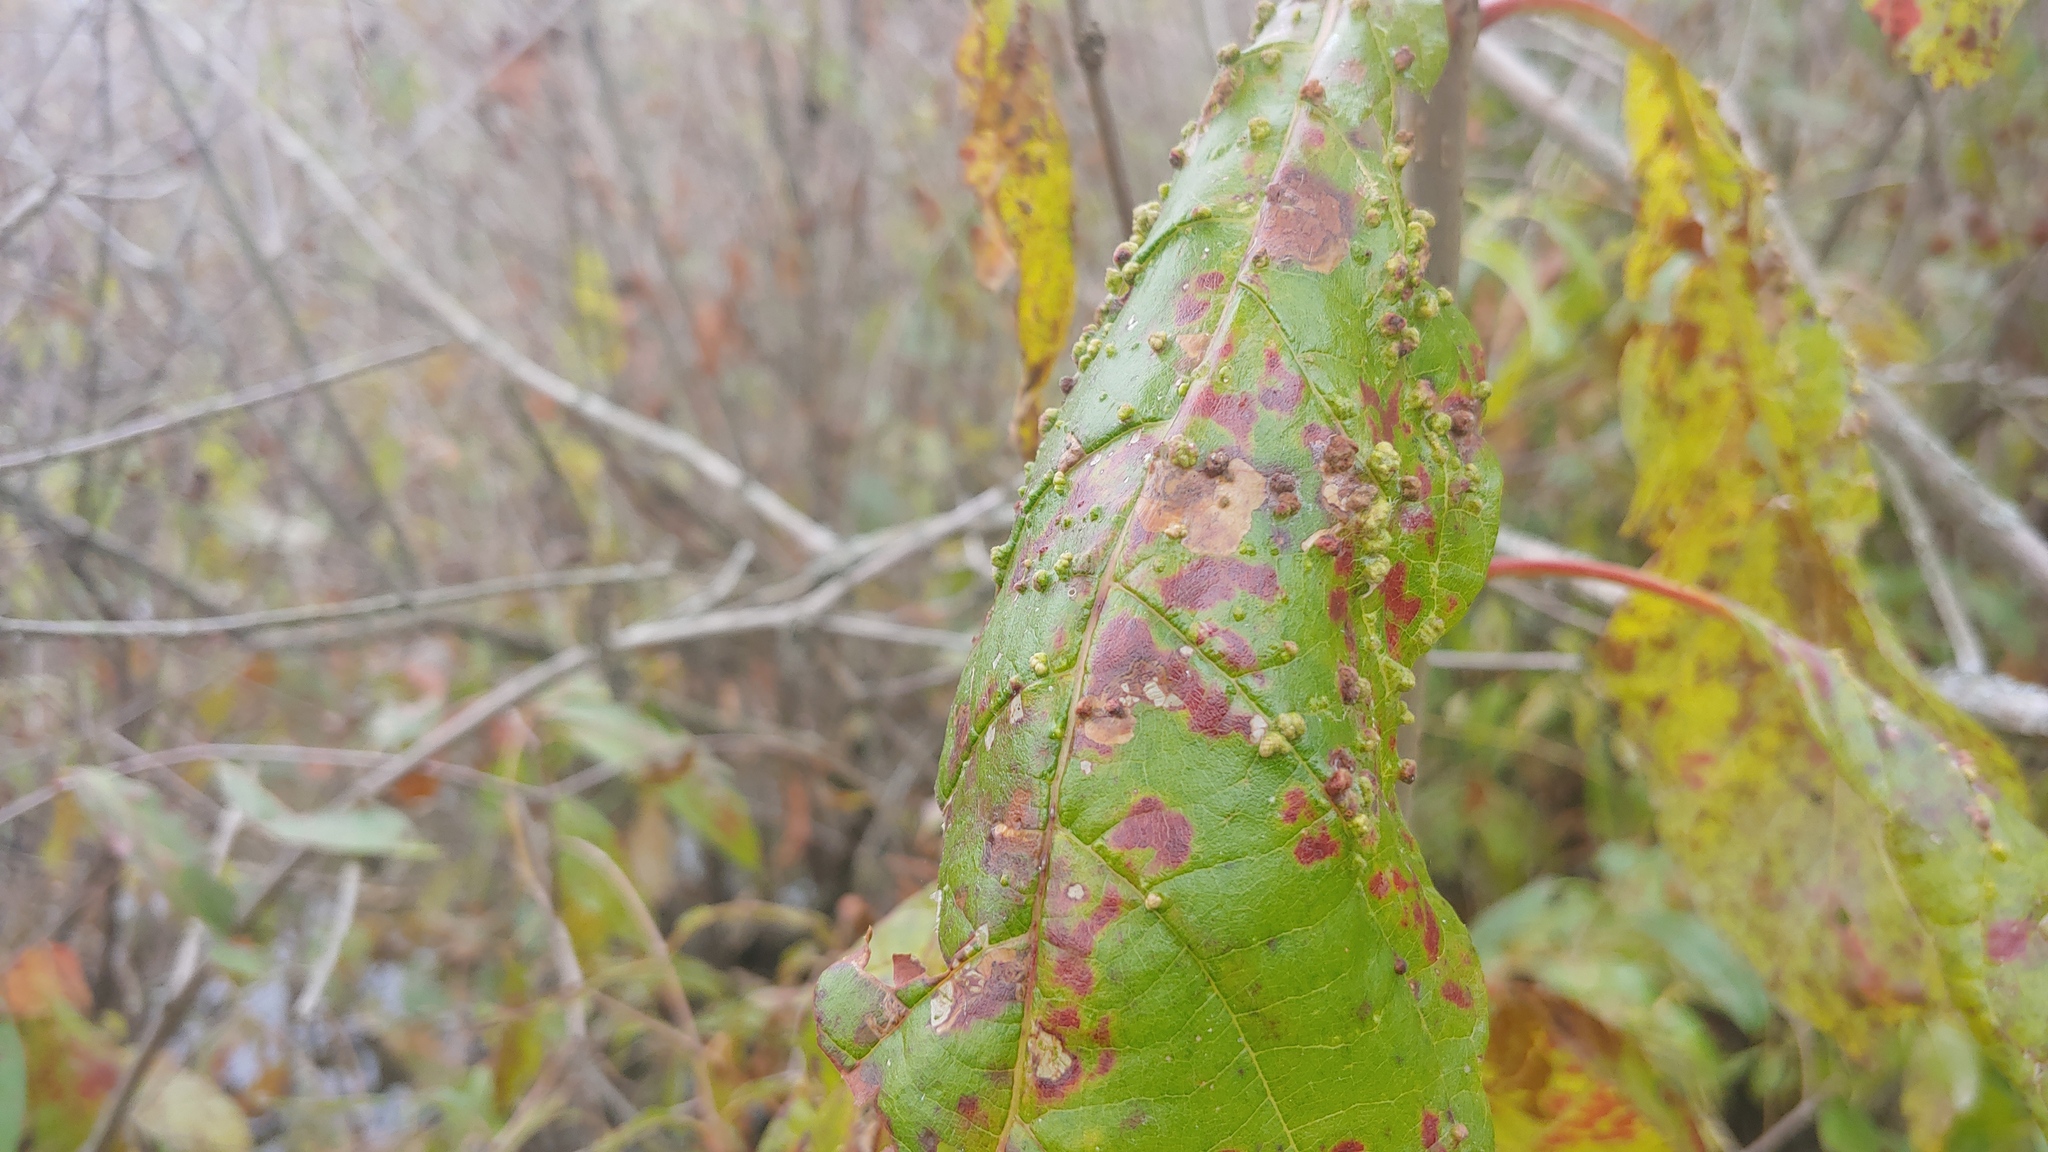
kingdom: Animalia
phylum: Arthropoda
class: Arachnida
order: Trombidiformes
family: Eriophyidae
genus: Aceria
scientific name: Aceria
